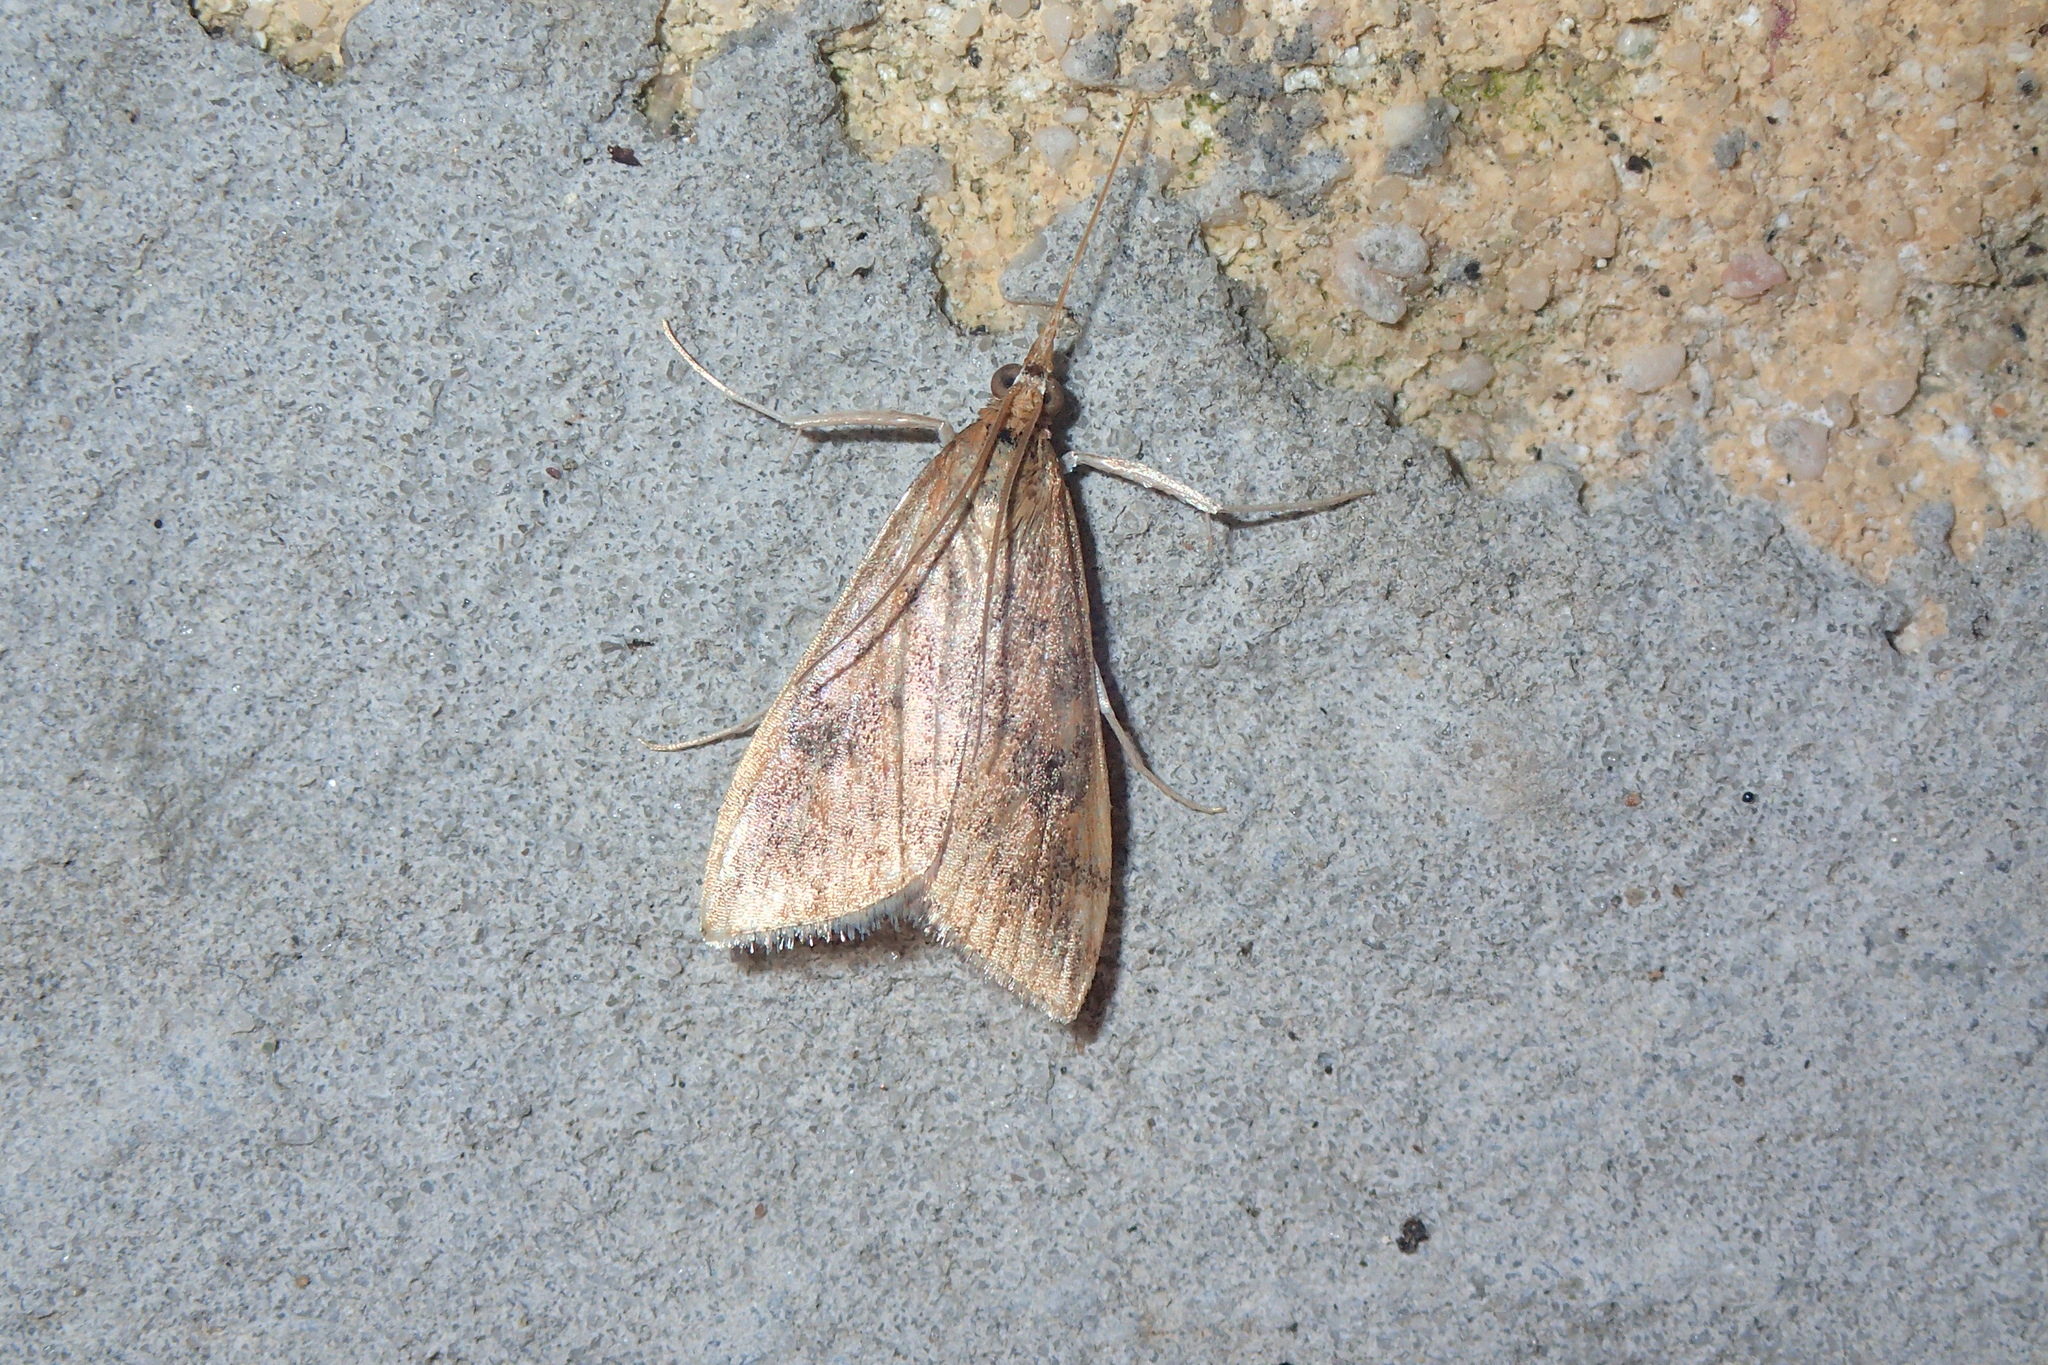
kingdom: Animalia
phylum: Arthropoda
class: Insecta
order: Lepidoptera
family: Crambidae
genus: Udea
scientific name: Udea ferrugalis
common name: Rusty dot
